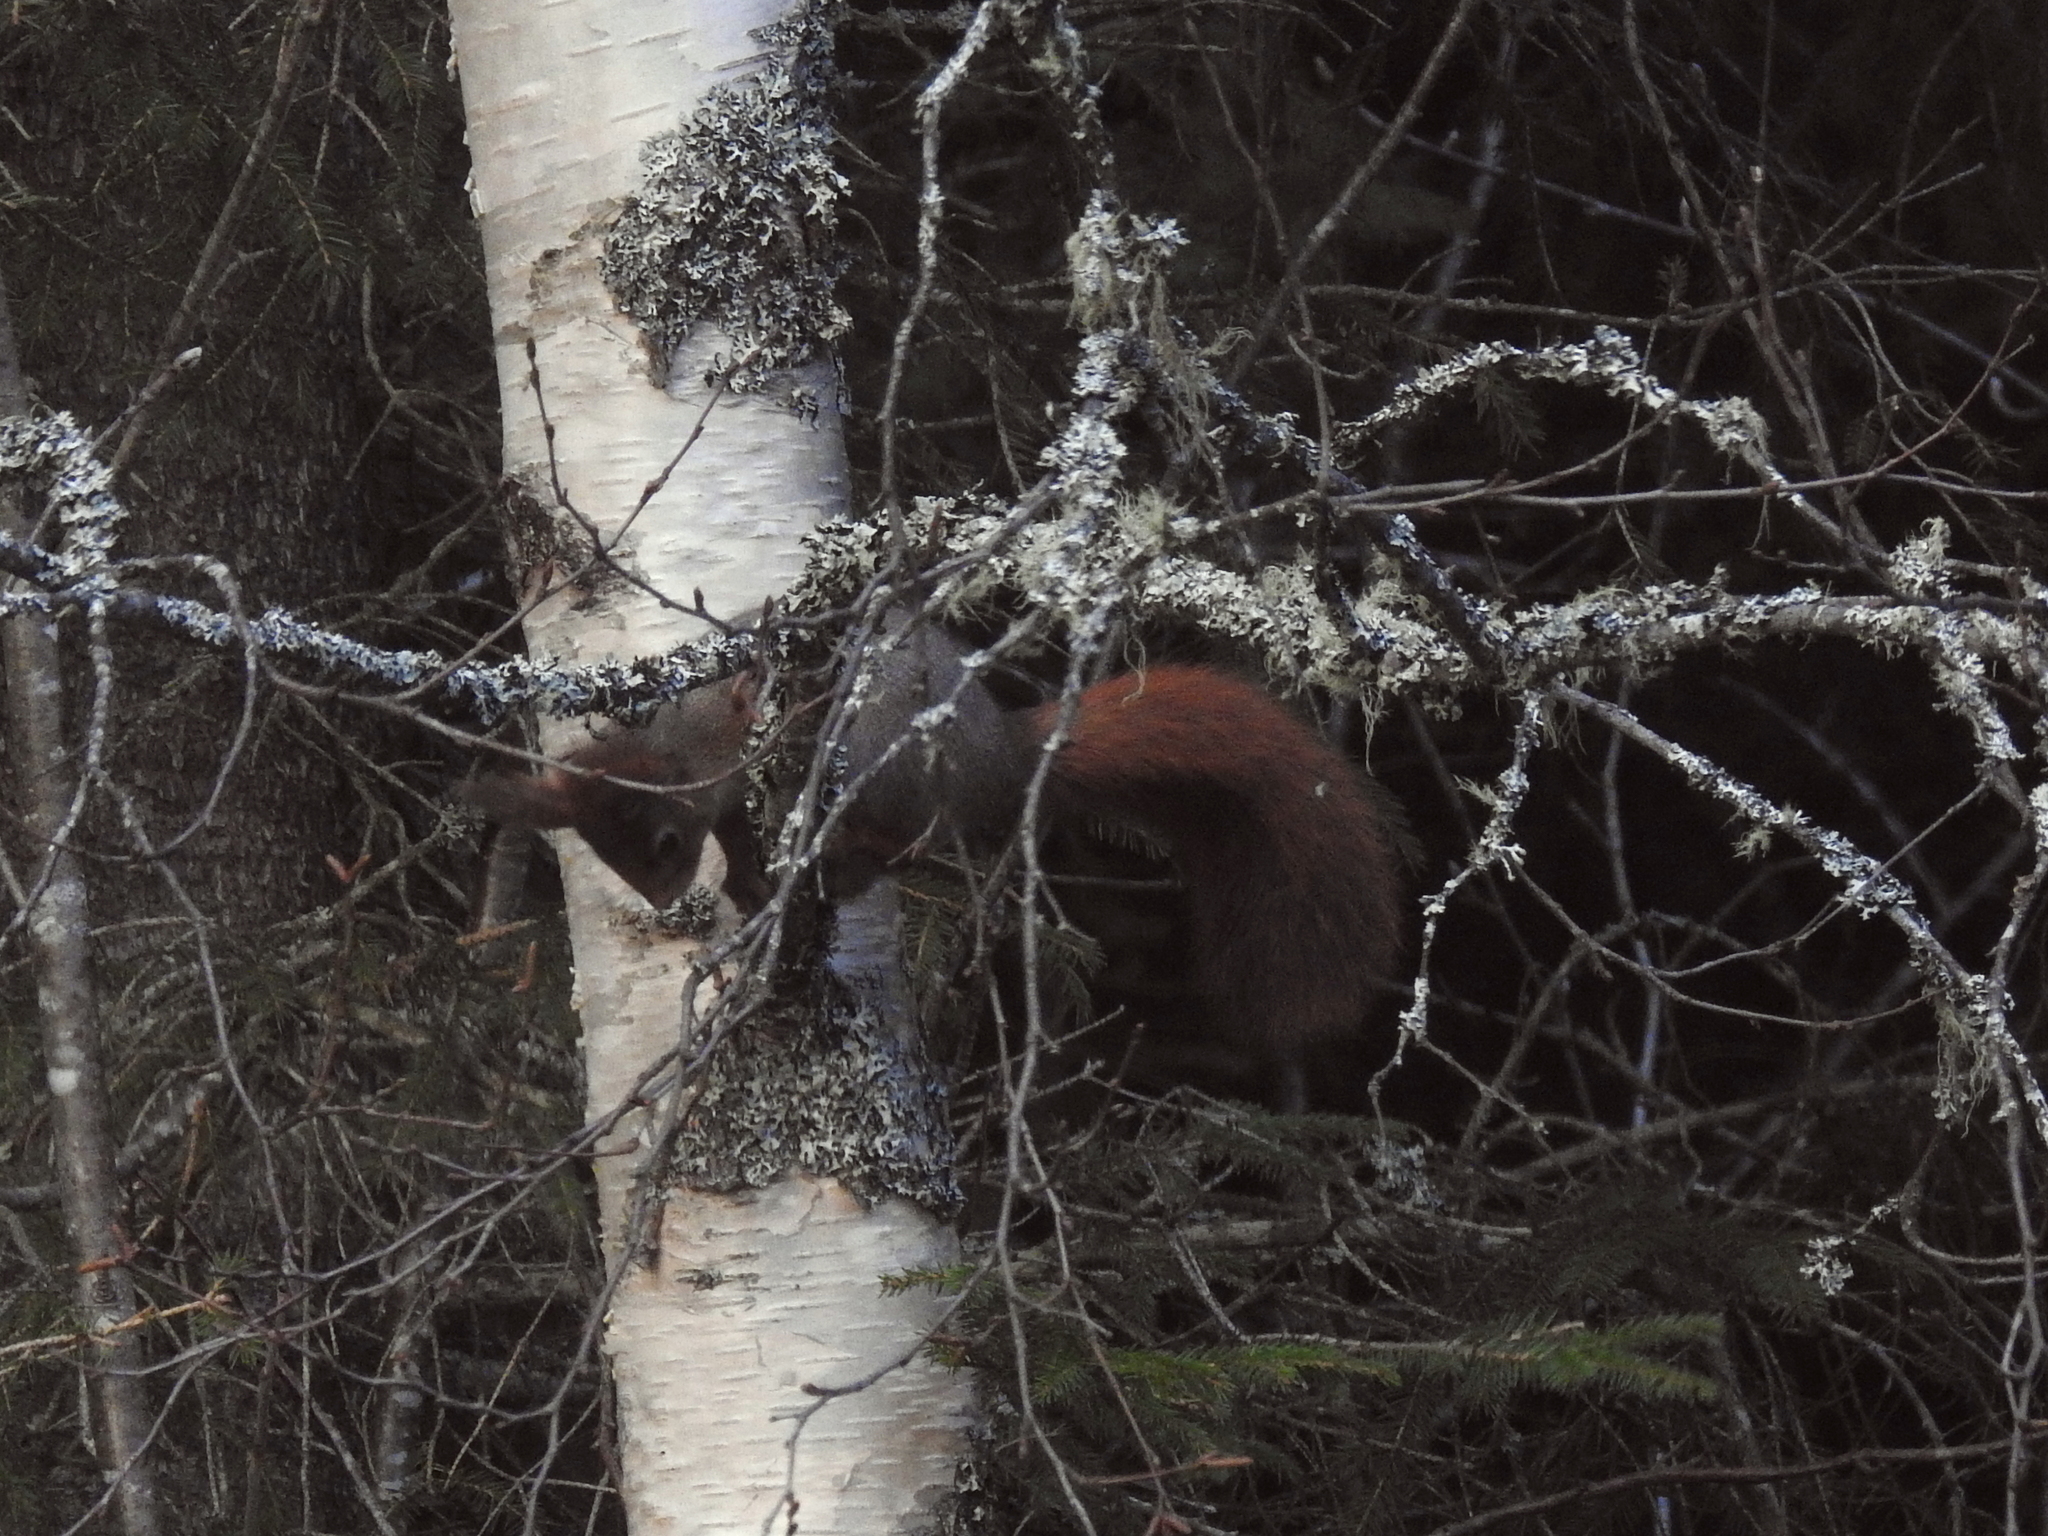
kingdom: Animalia
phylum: Chordata
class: Mammalia
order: Rodentia
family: Sciuridae
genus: Sciurus
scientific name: Sciurus vulgaris
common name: Eurasian red squirrel
